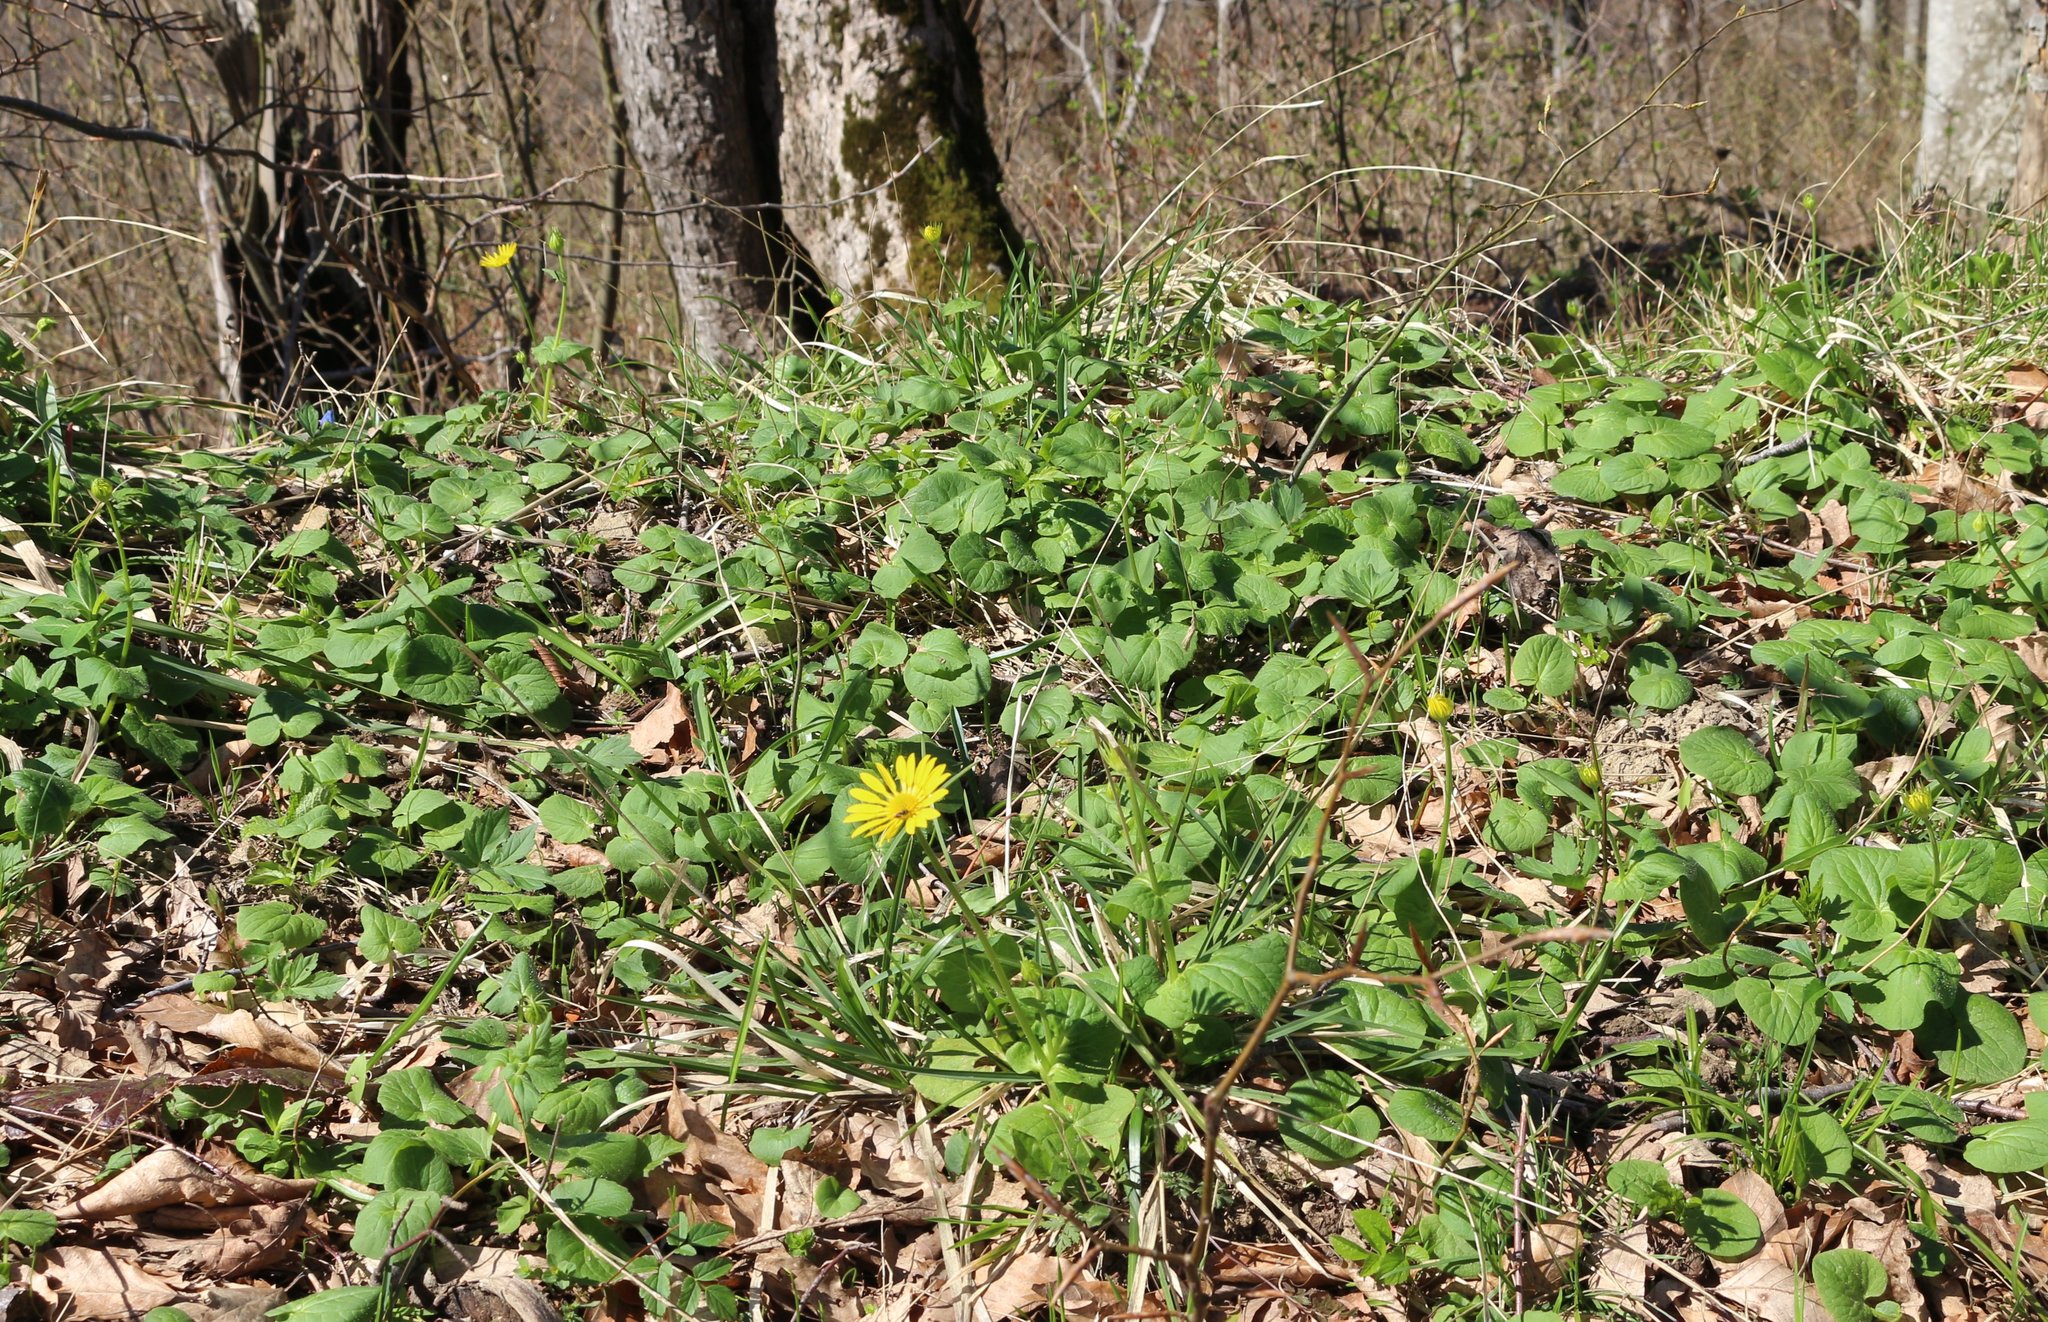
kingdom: Plantae
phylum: Tracheophyta
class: Magnoliopsida
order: Asterales
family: Asteraceae
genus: Doronicum
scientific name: Doronicum
